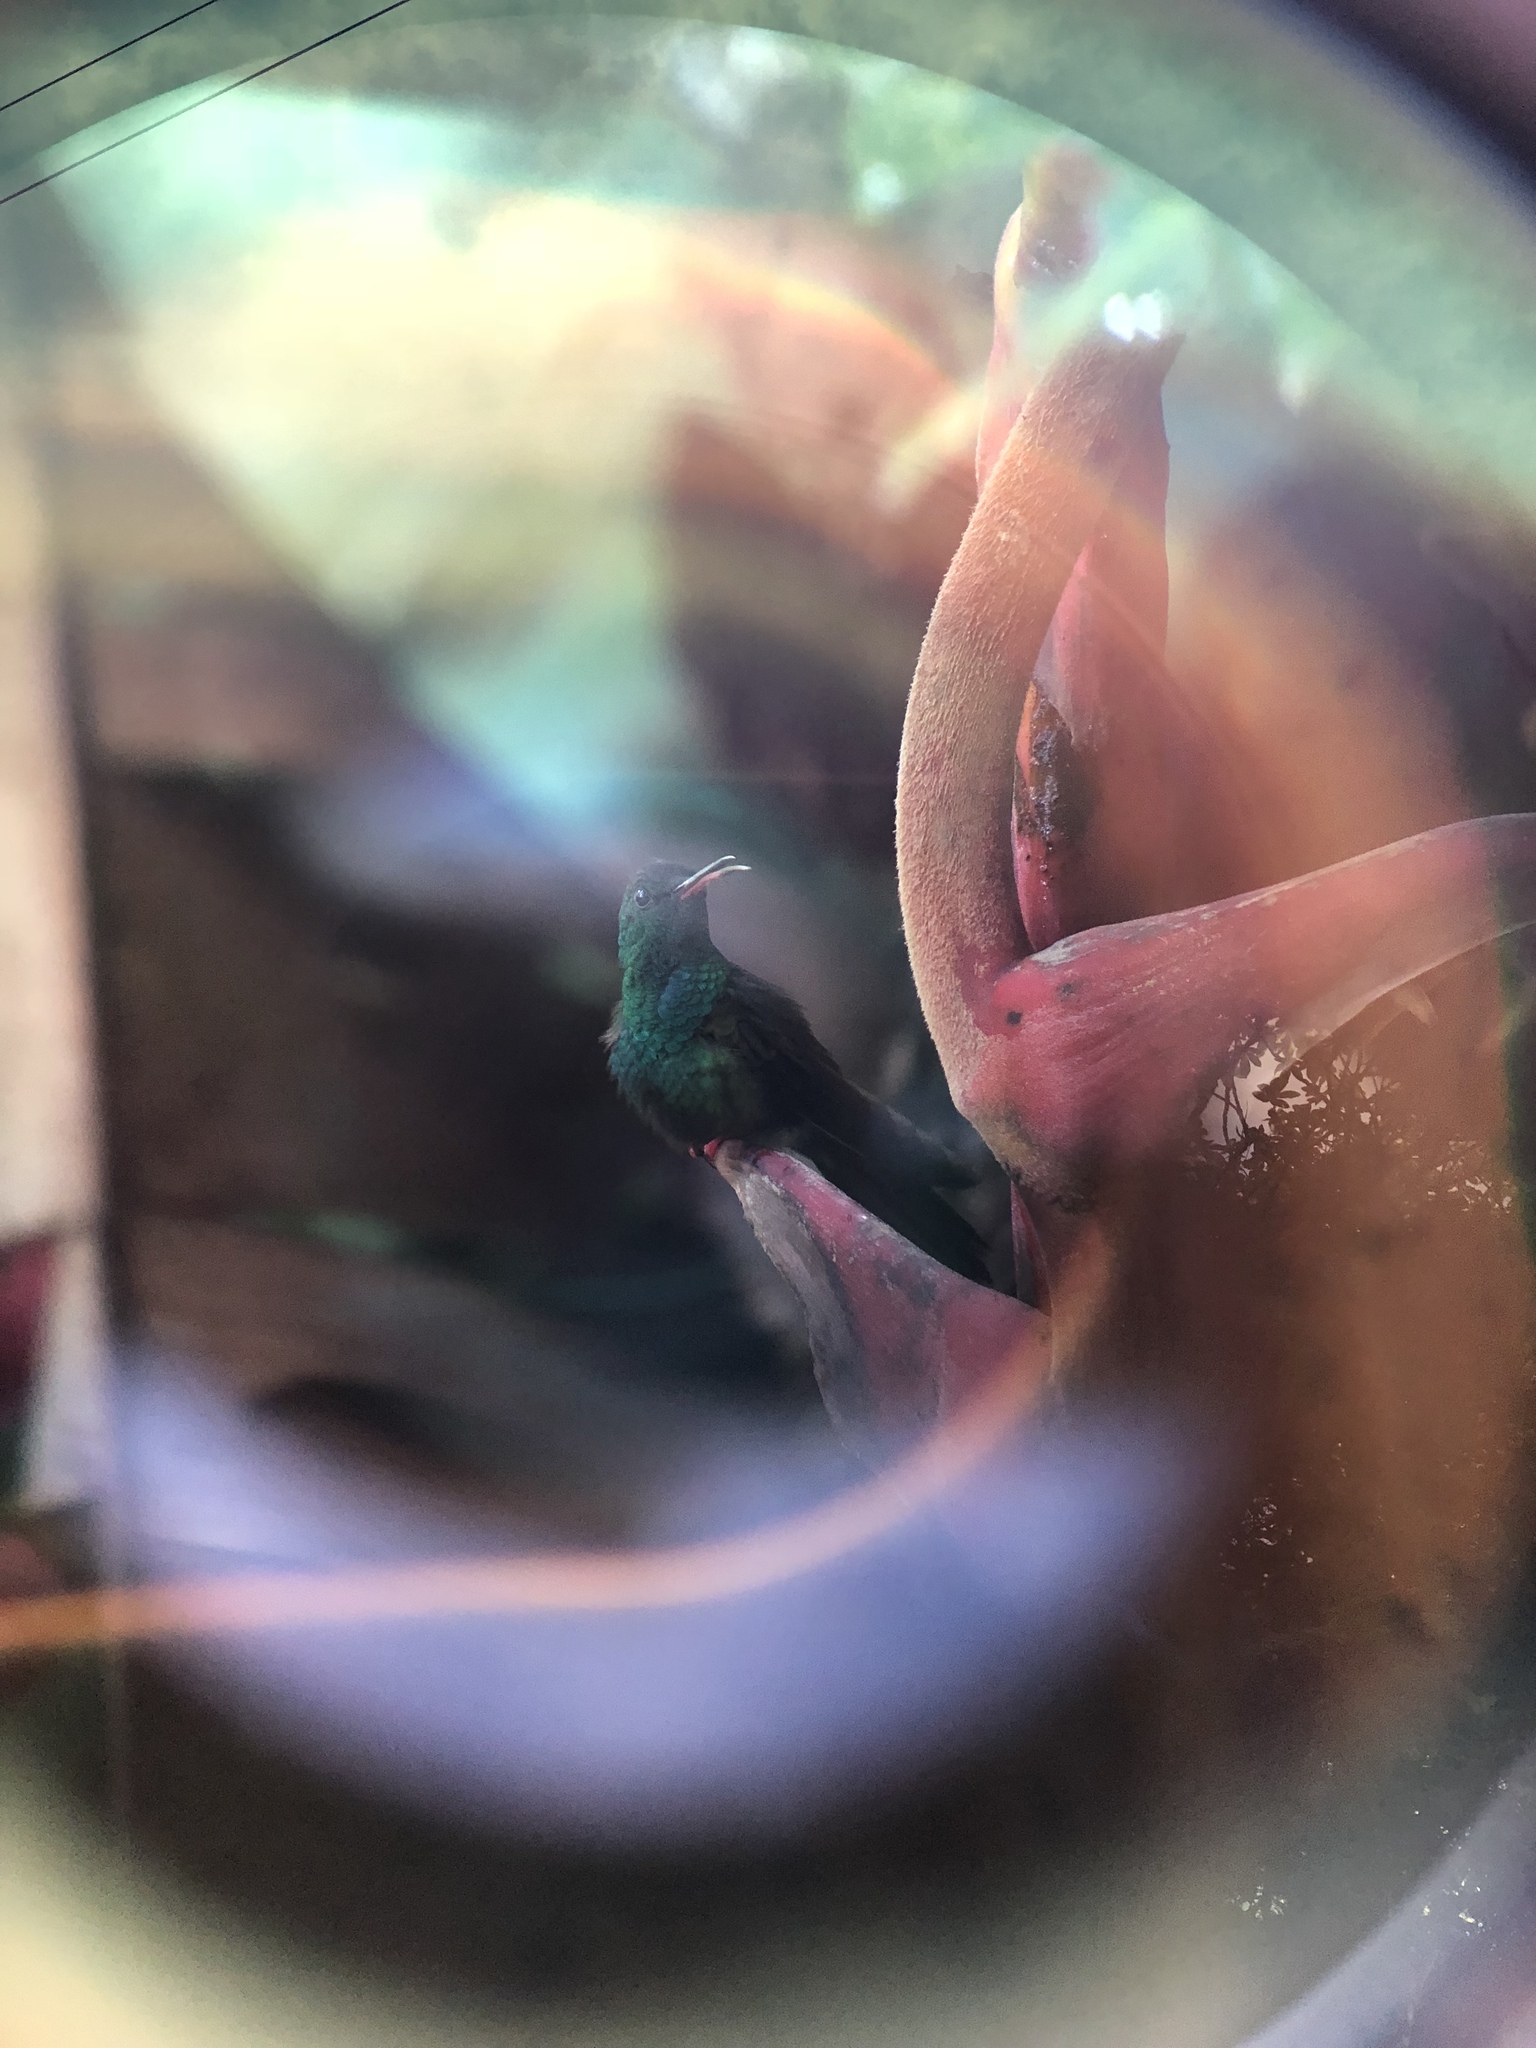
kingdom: Animalia
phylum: Chordata
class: Aves
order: Apodiformes
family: Trochilidae
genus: Chalybura
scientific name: Chalybura urochrysia
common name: Bronze-tailed plumeleteer
